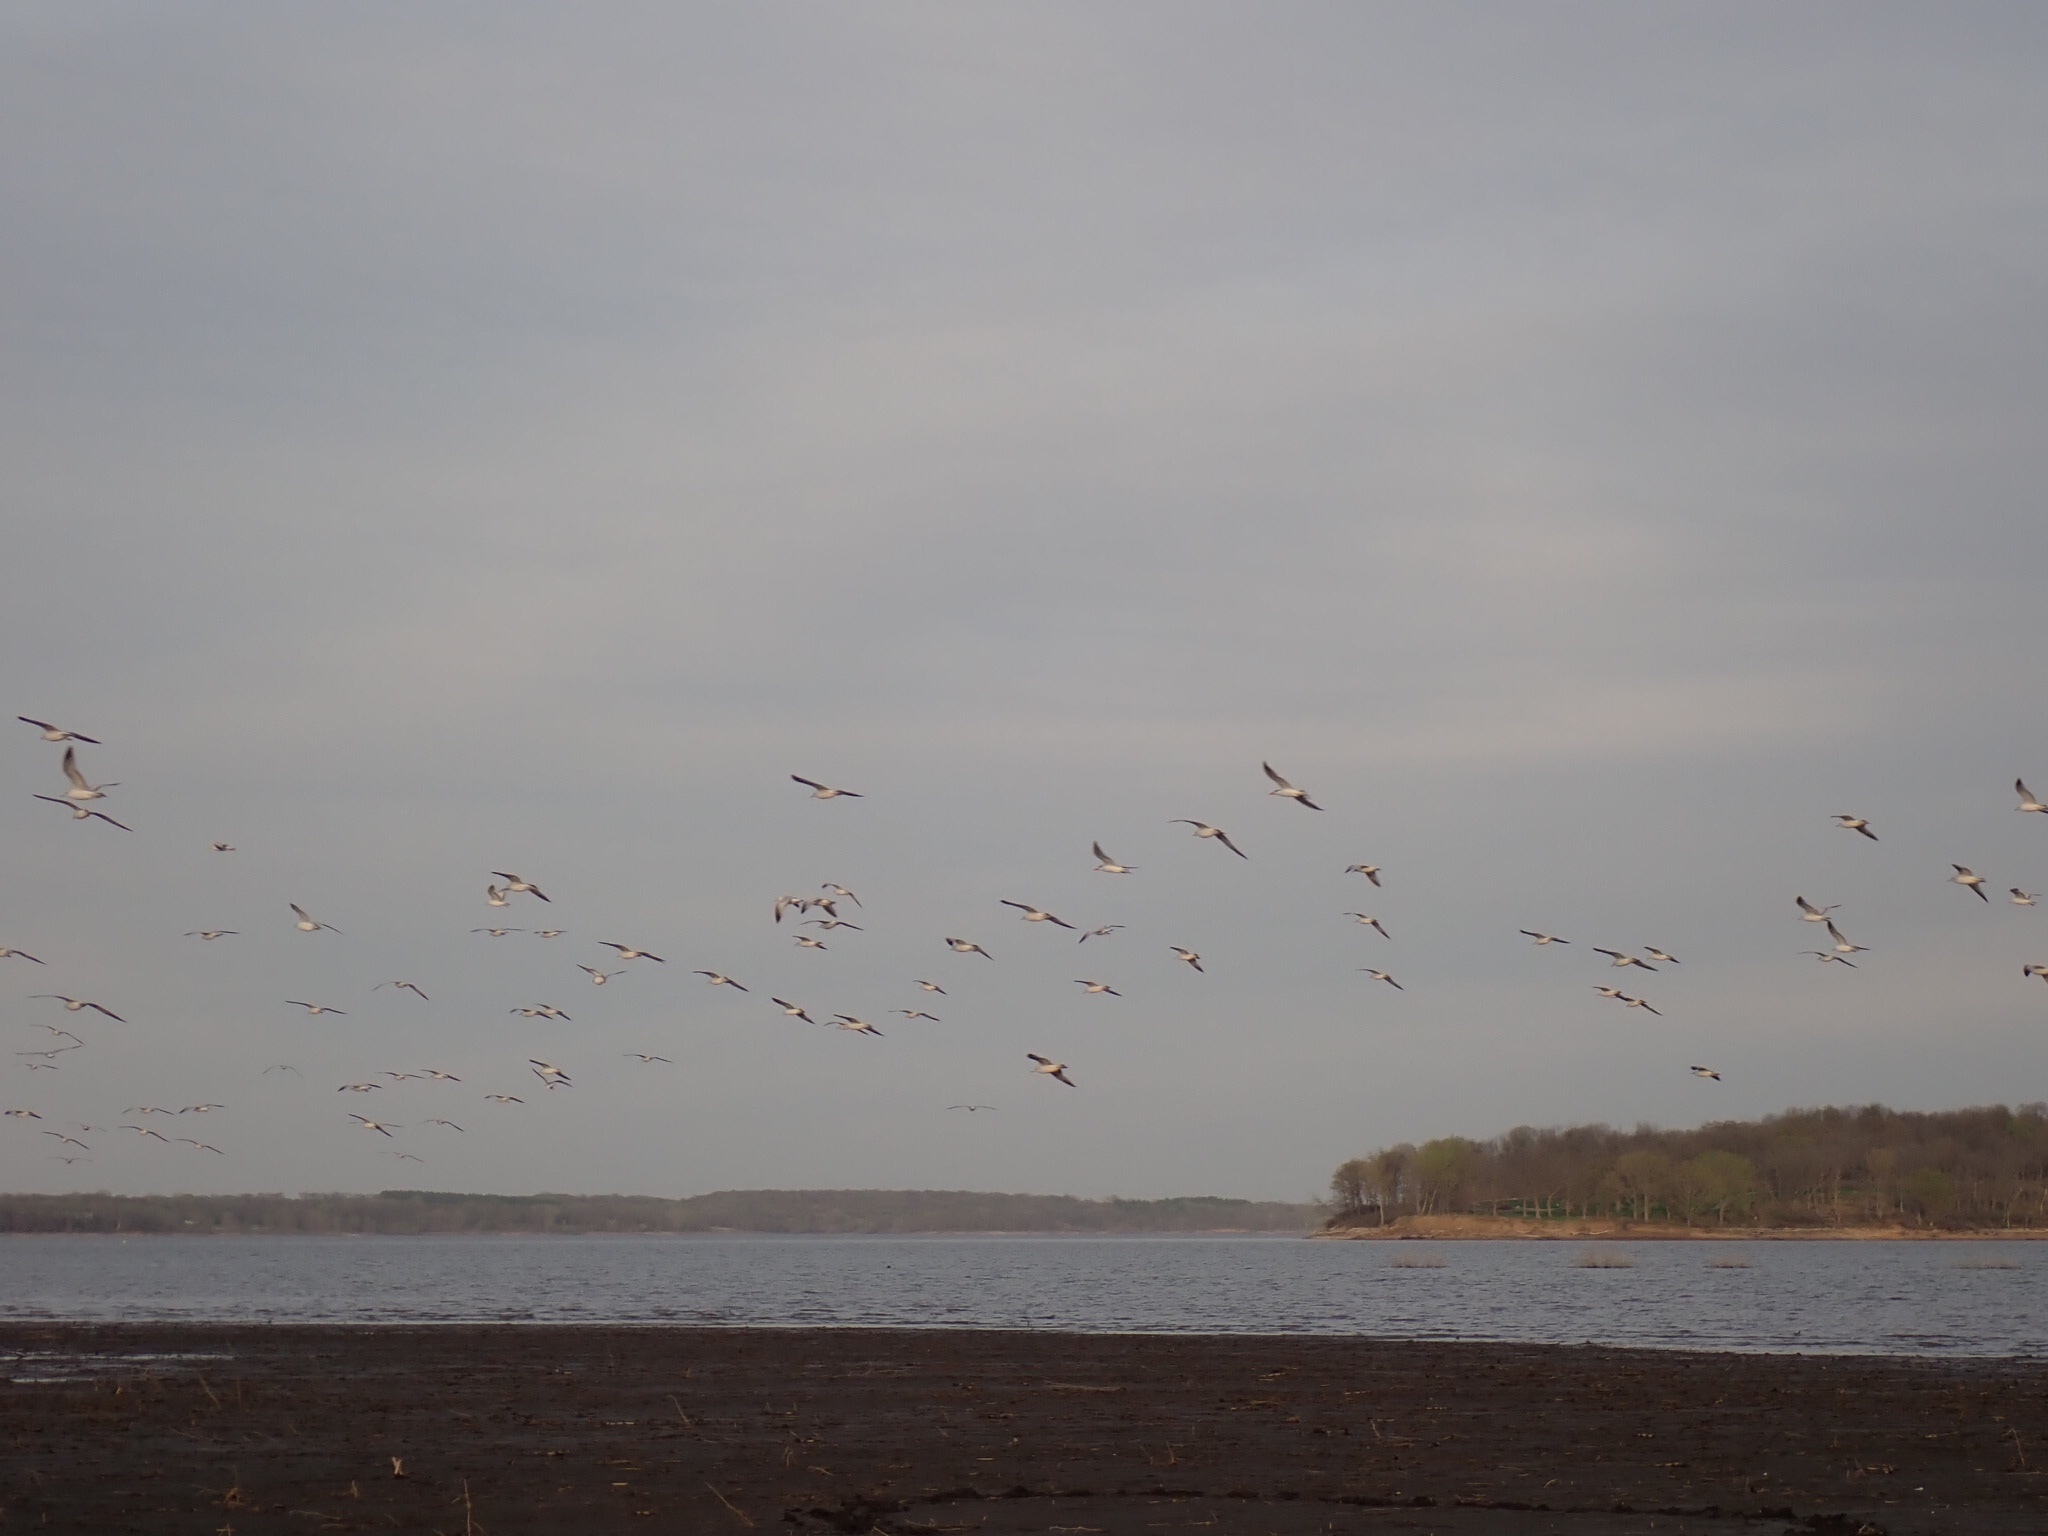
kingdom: Animalia
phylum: Chordata
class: Aves
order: Charadriiformes
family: Laridae
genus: Larus
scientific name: Larus delawarensis
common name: Ring-billed gull
